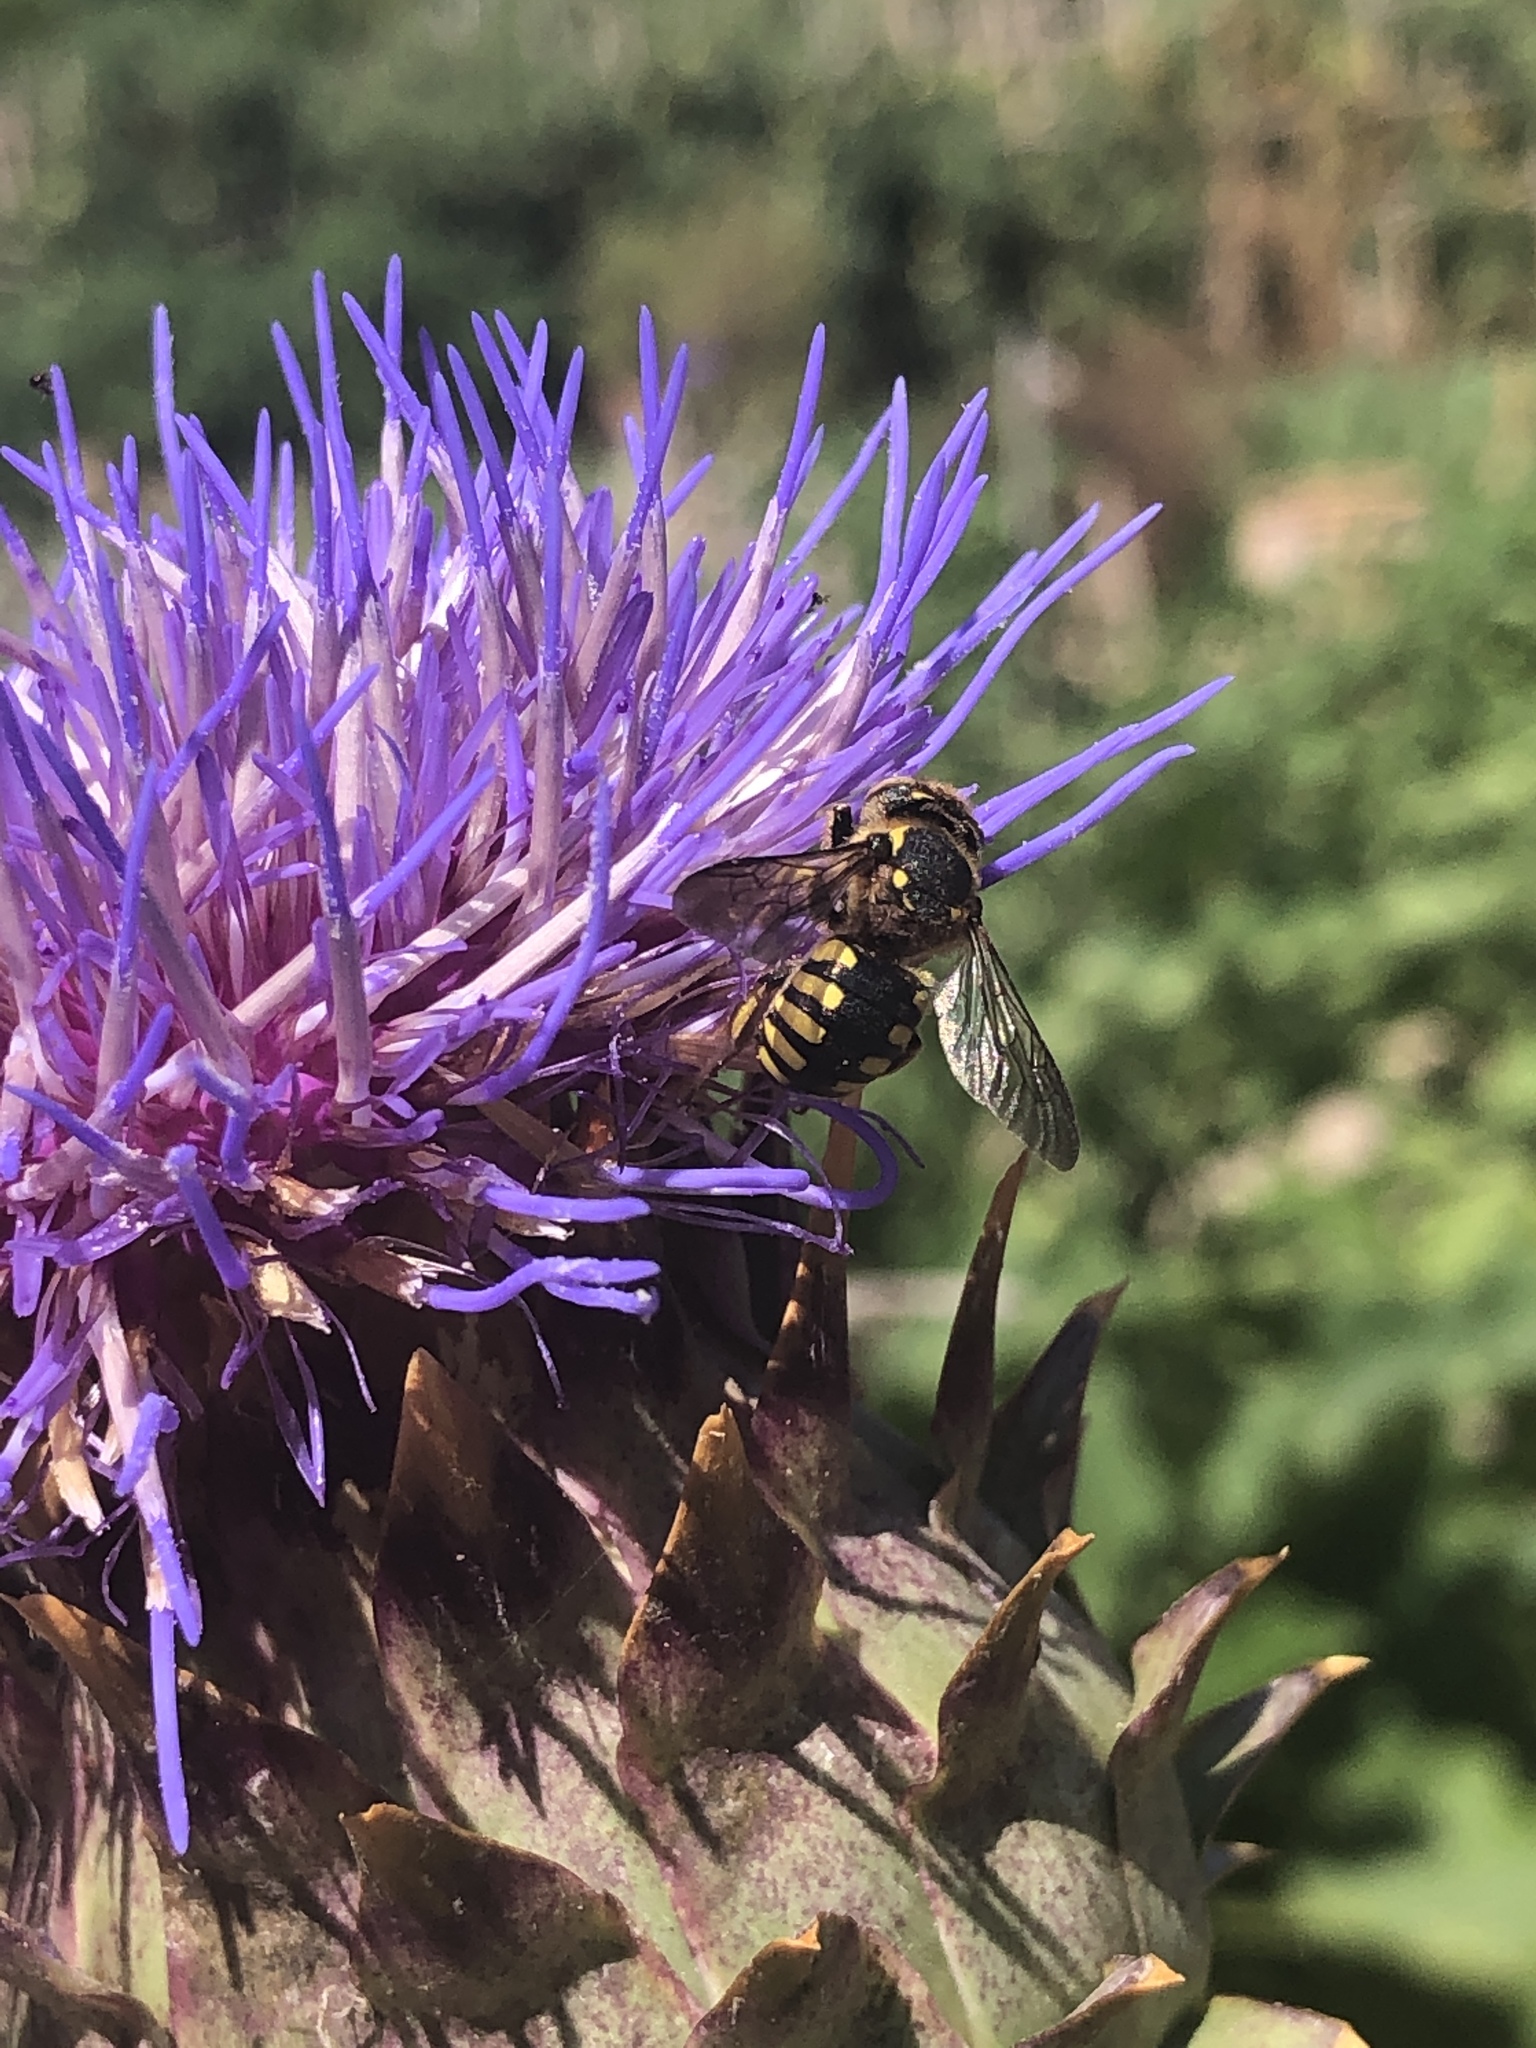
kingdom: Animalia
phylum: Arthropoda
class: Insecta
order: Hymenoptera
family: Megachilidae
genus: Anthidium
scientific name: Anthidium florentinum
